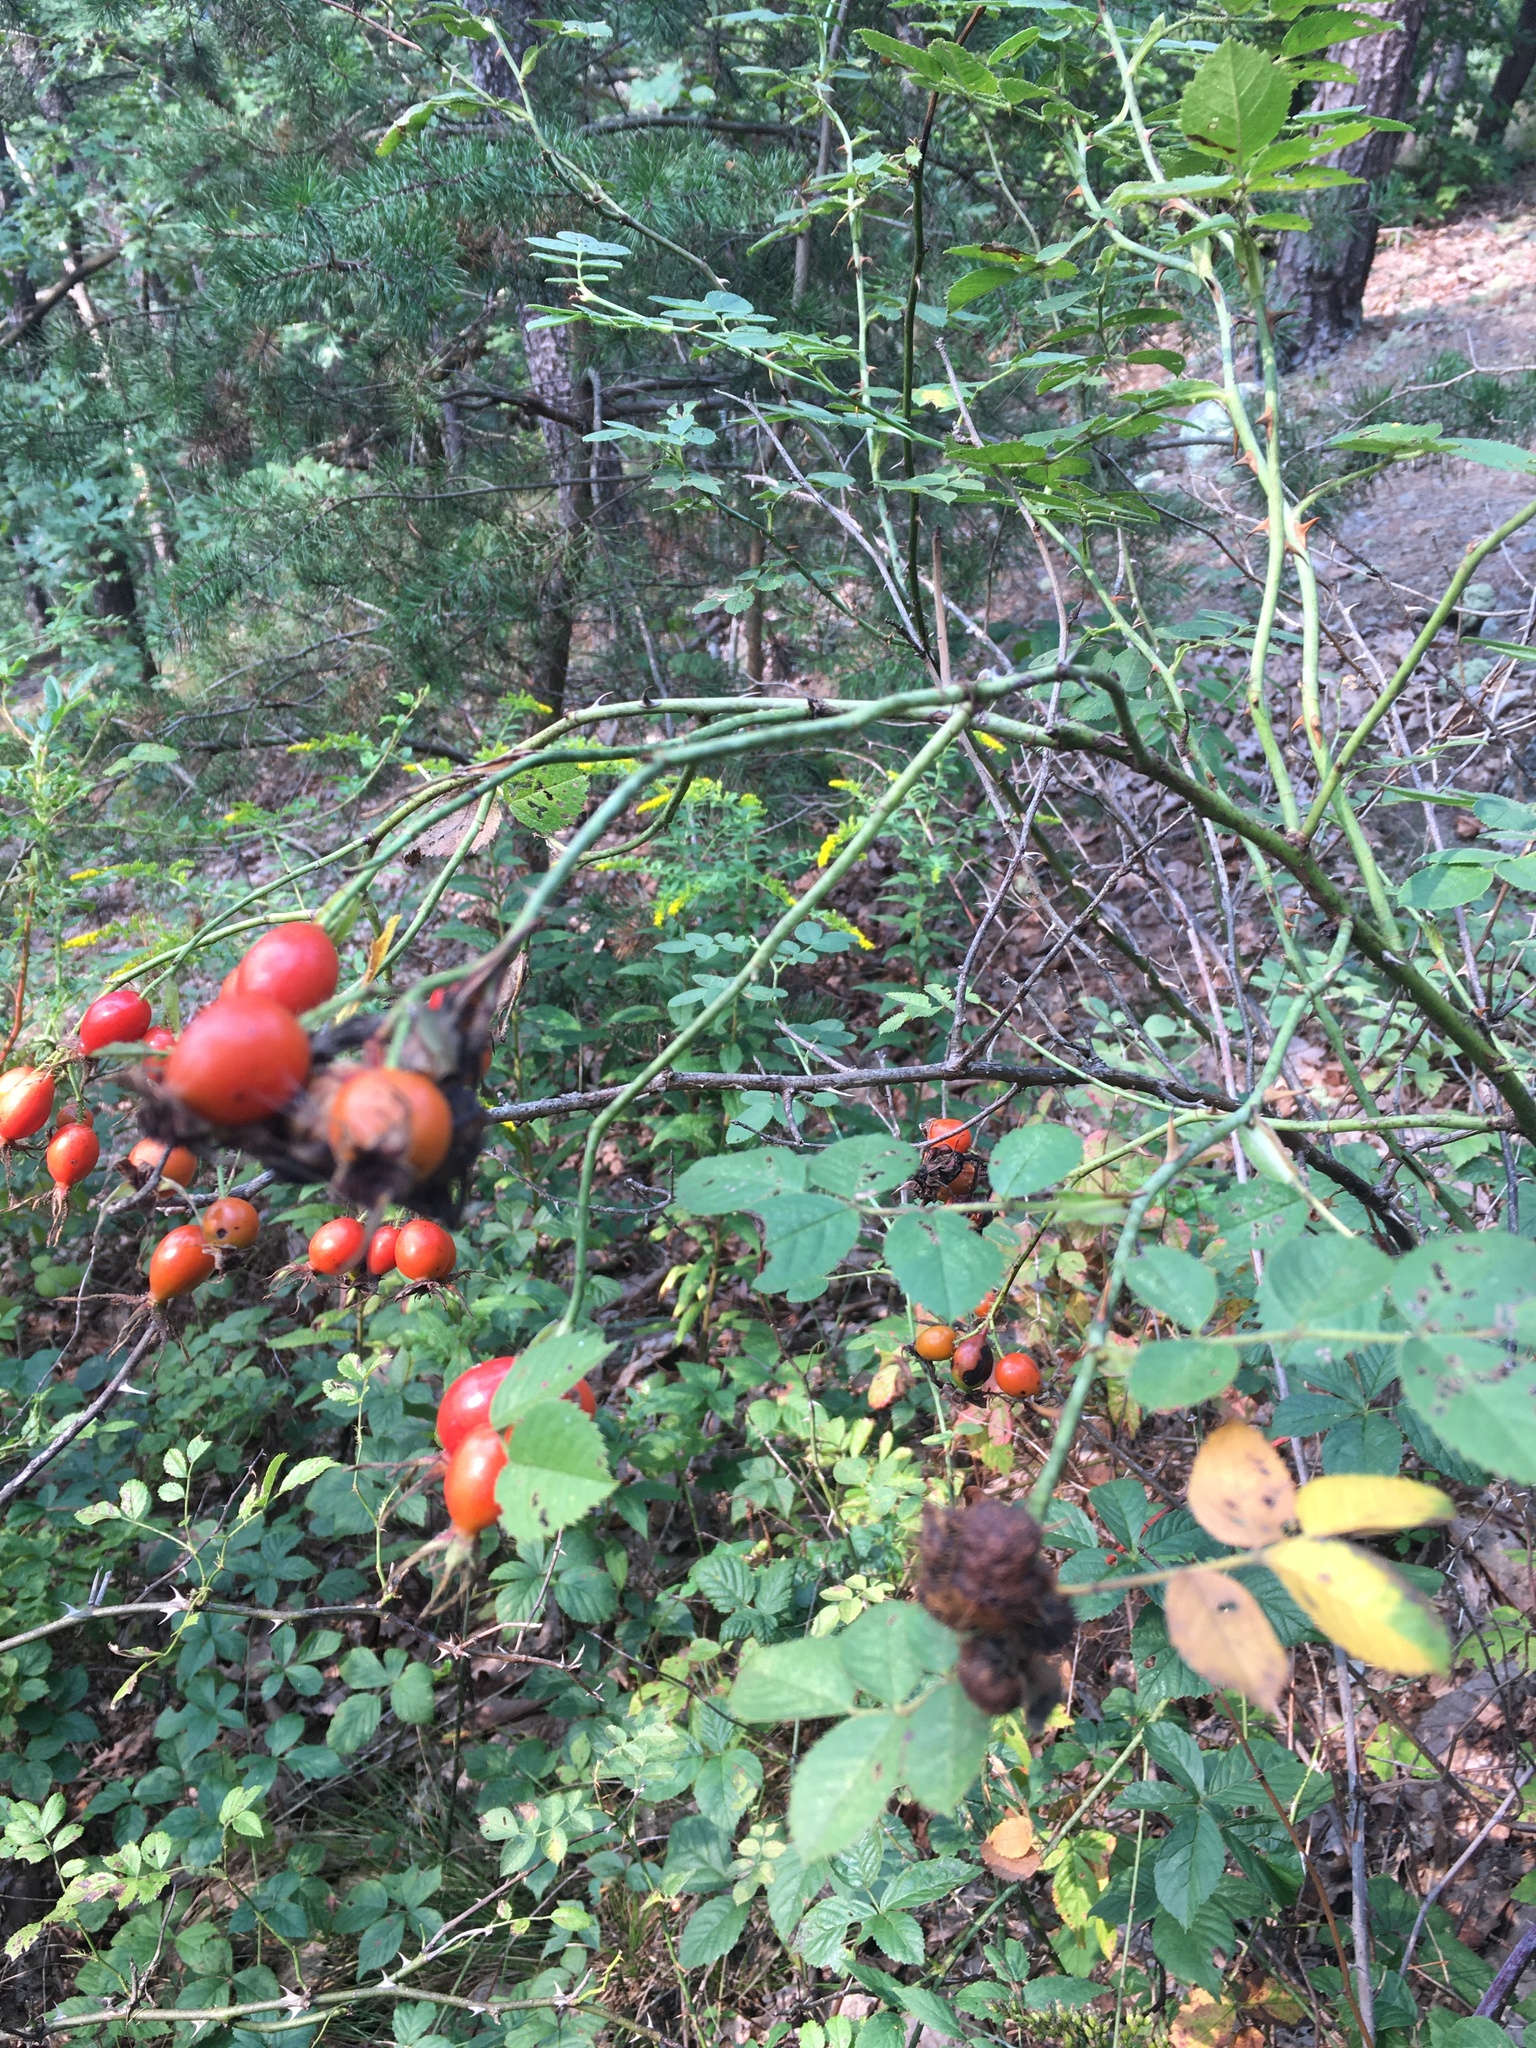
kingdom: Plantae
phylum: Tracheophyta
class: Magnoliopsida
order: Rosales
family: Rosaceae
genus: Rosa
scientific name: Rosa rubiginosa
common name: Sweet-briar
